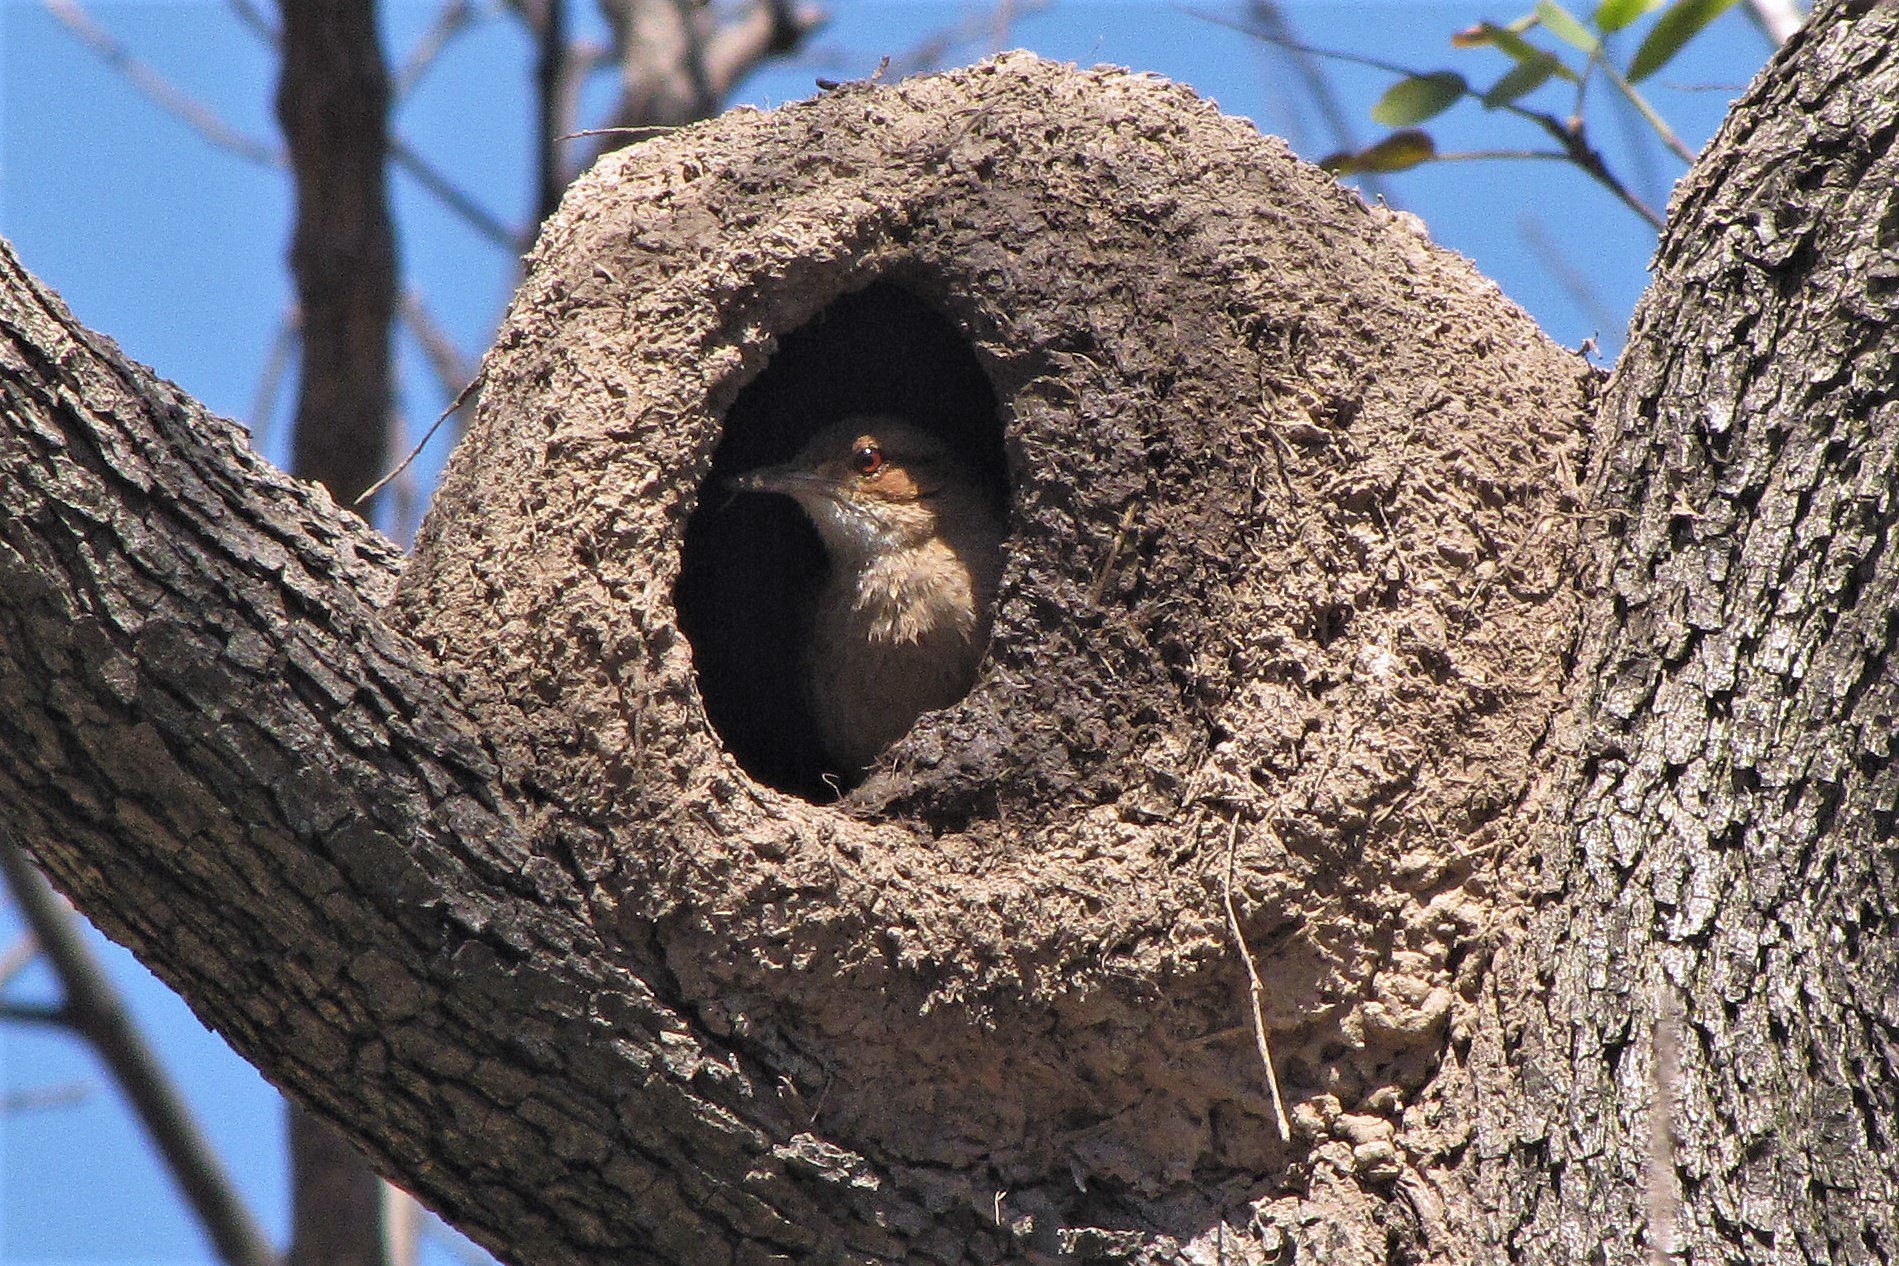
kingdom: Animalia
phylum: Chordata
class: Aves
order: Passeriformes
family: Furnariidae
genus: Furnarius
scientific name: Furnarius rufus
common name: Rufous hornero
